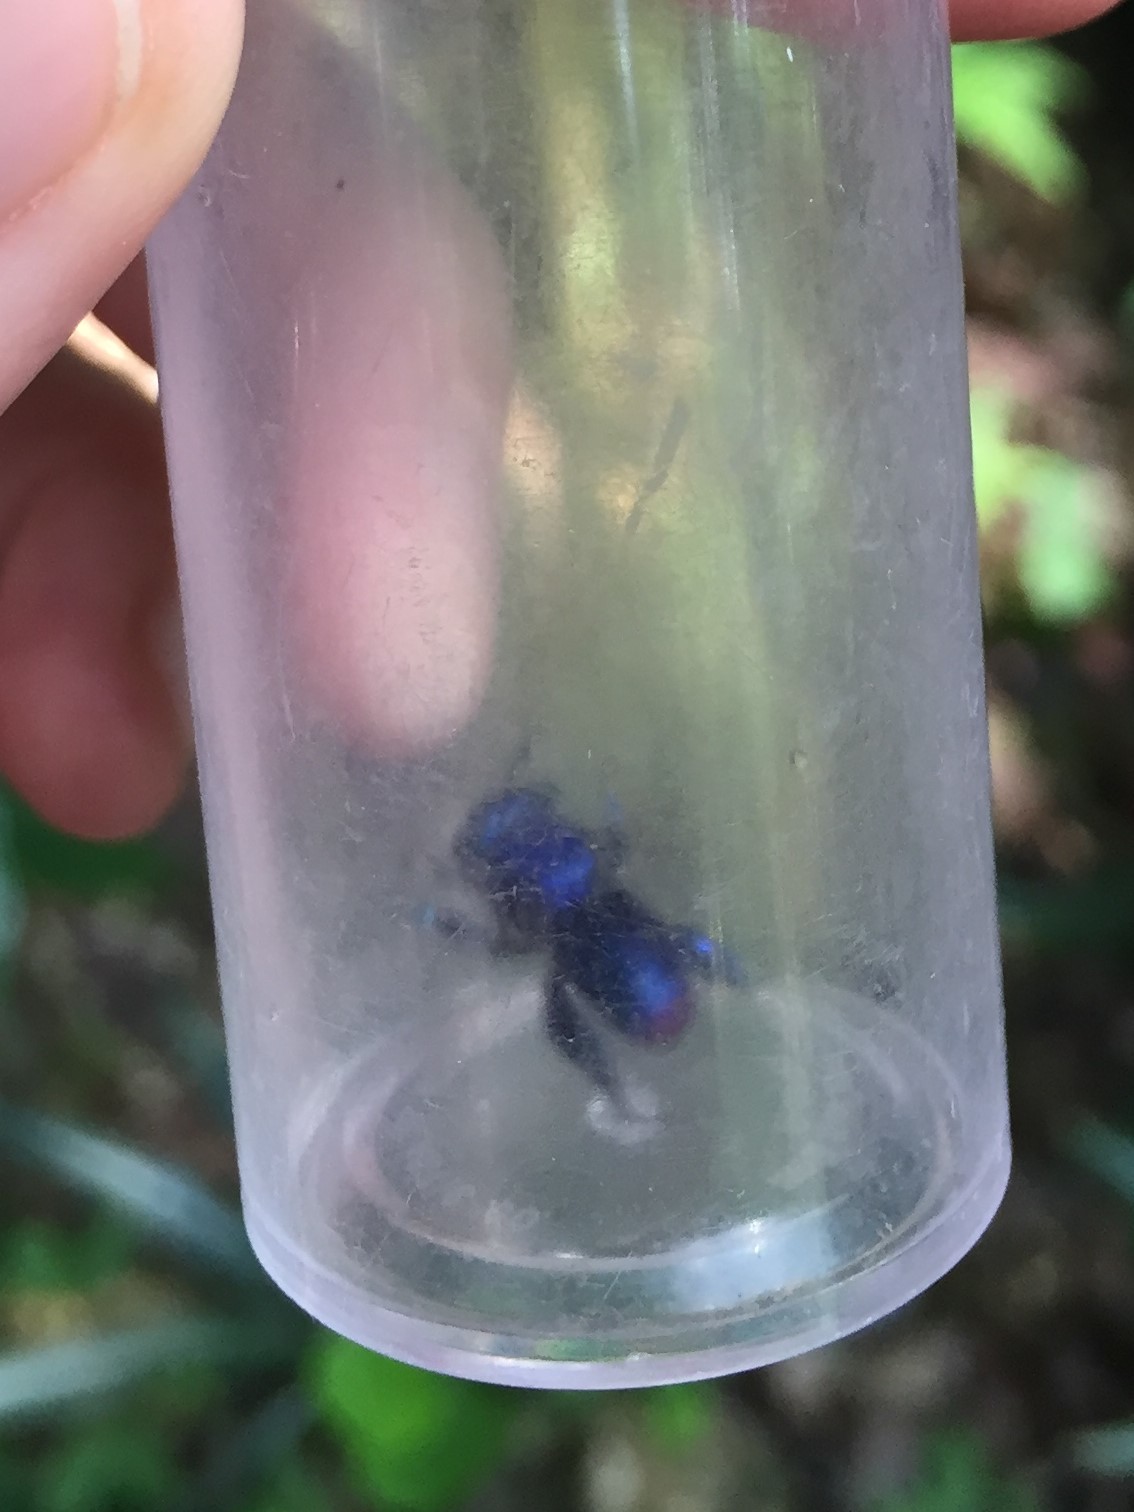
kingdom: Animalia
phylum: Arthropoda
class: Insecta
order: Hymenoptera
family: Apidae
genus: Euglossa
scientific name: Euglossa mixta
